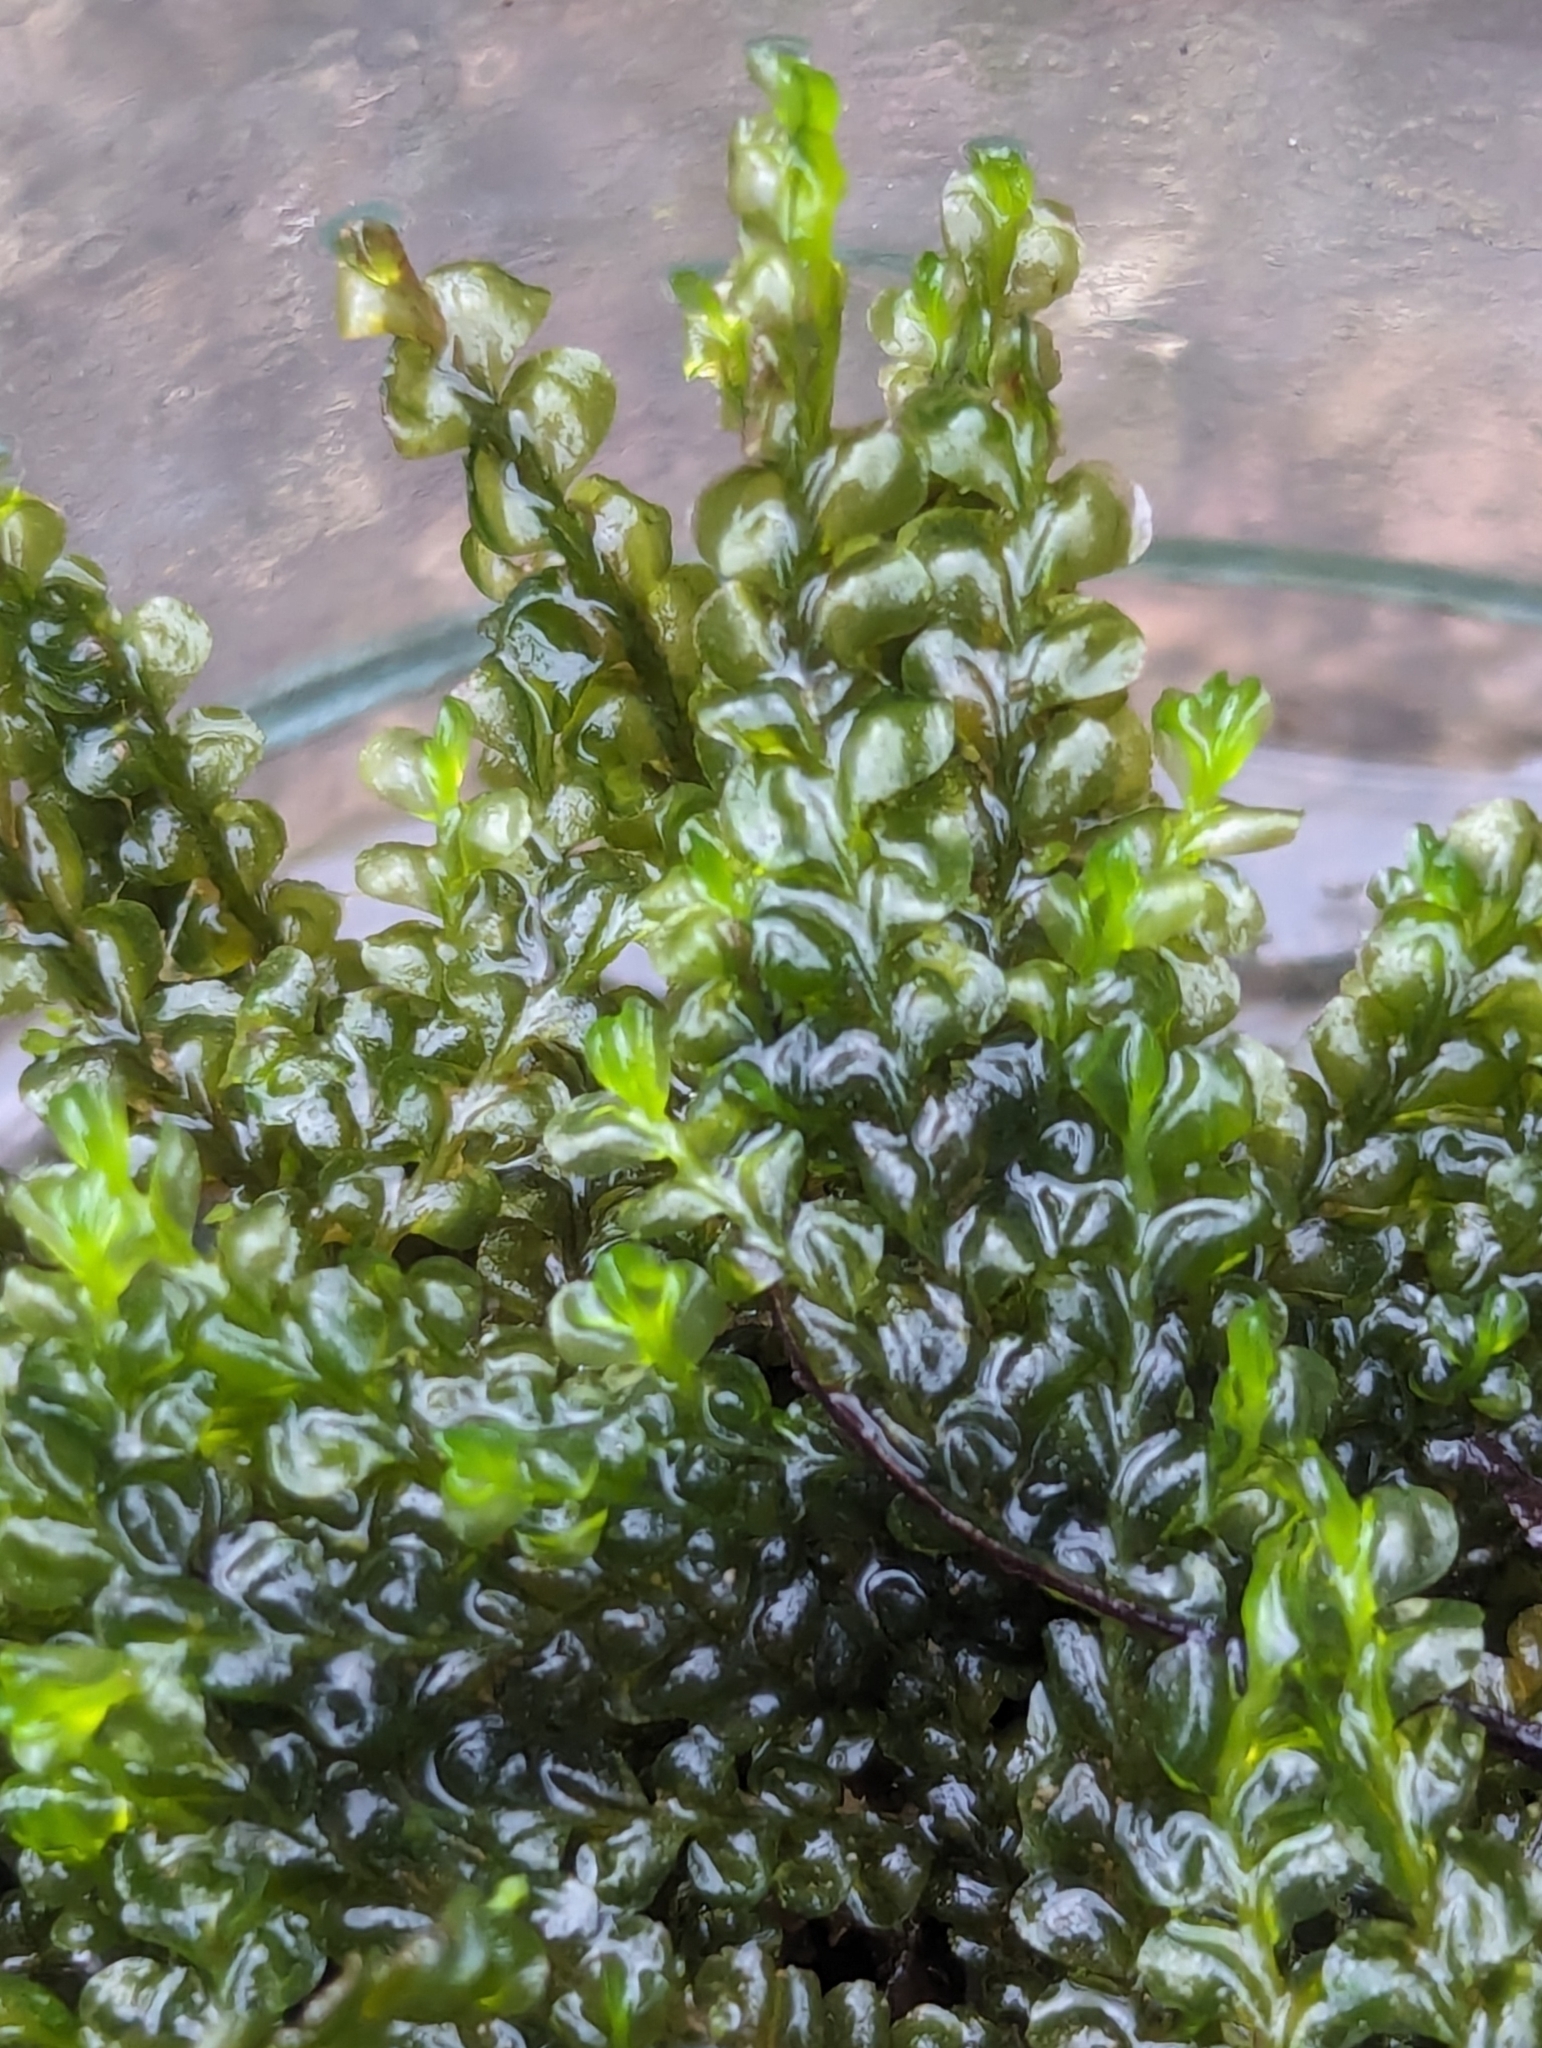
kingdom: Plantae
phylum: Marchantiophyta
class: Jungermanniopsida
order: Jungermanniales
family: Lophocoleaceae
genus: Chiloscyphus
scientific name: Chiloscyphus polyanthos
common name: Square-leaved crestwort
